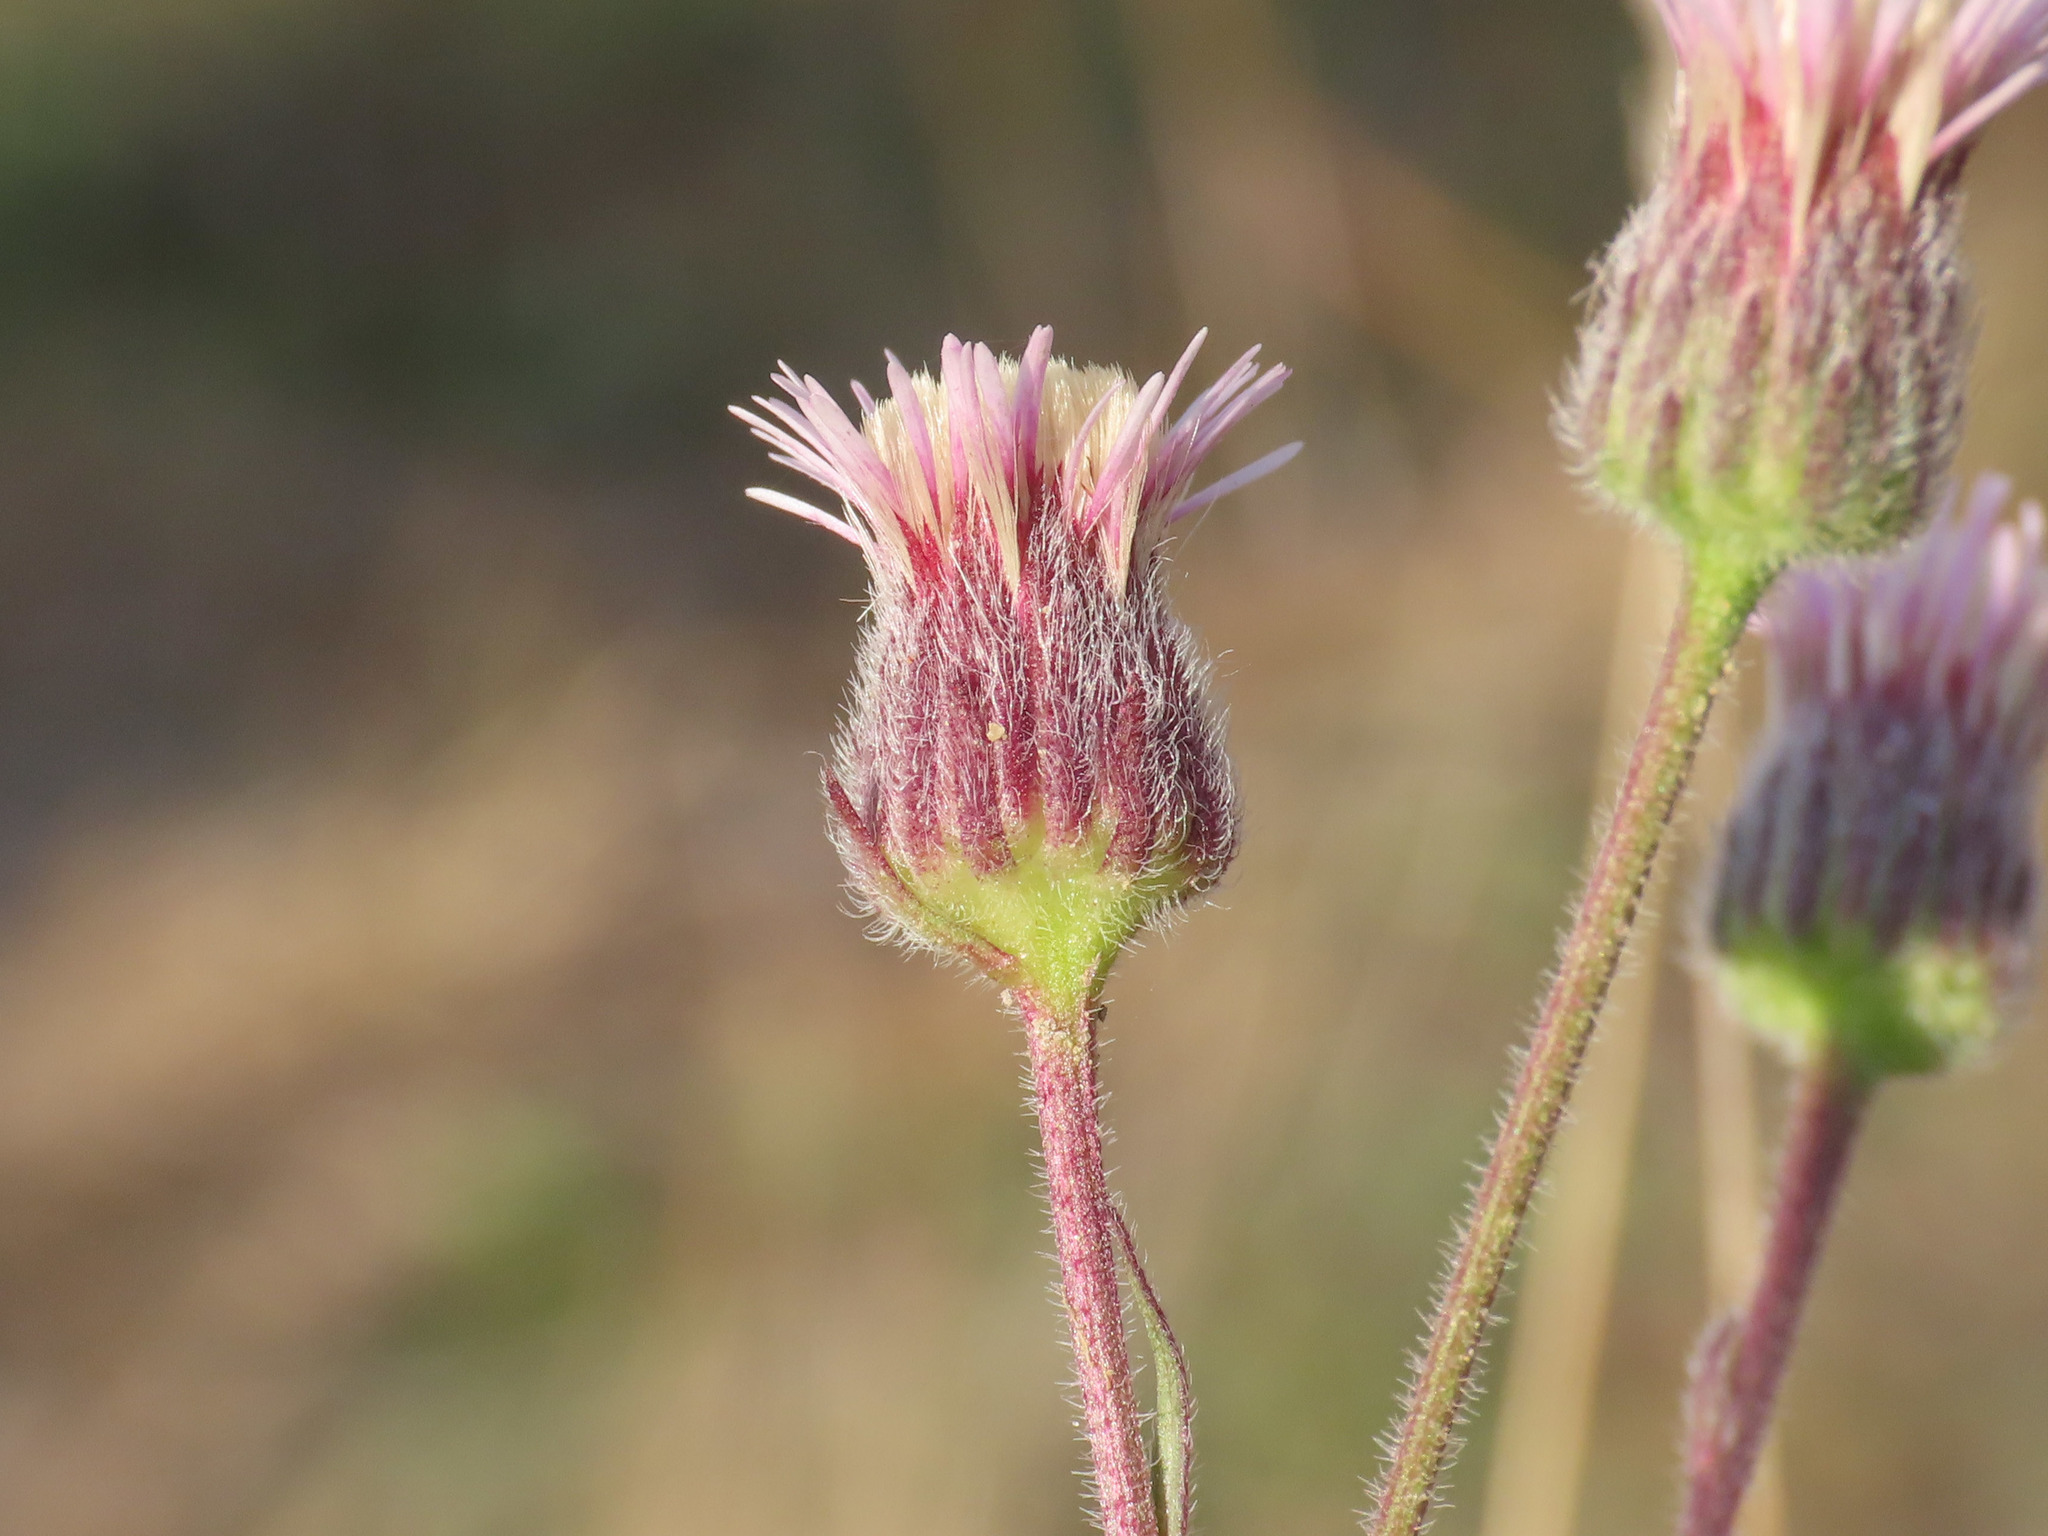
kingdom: Plantae
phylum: Tracheophyta
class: Magnoliopsida
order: Asterales
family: Asteraceae
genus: Erigeron
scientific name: Erigeron acris
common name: Blue fleabane
